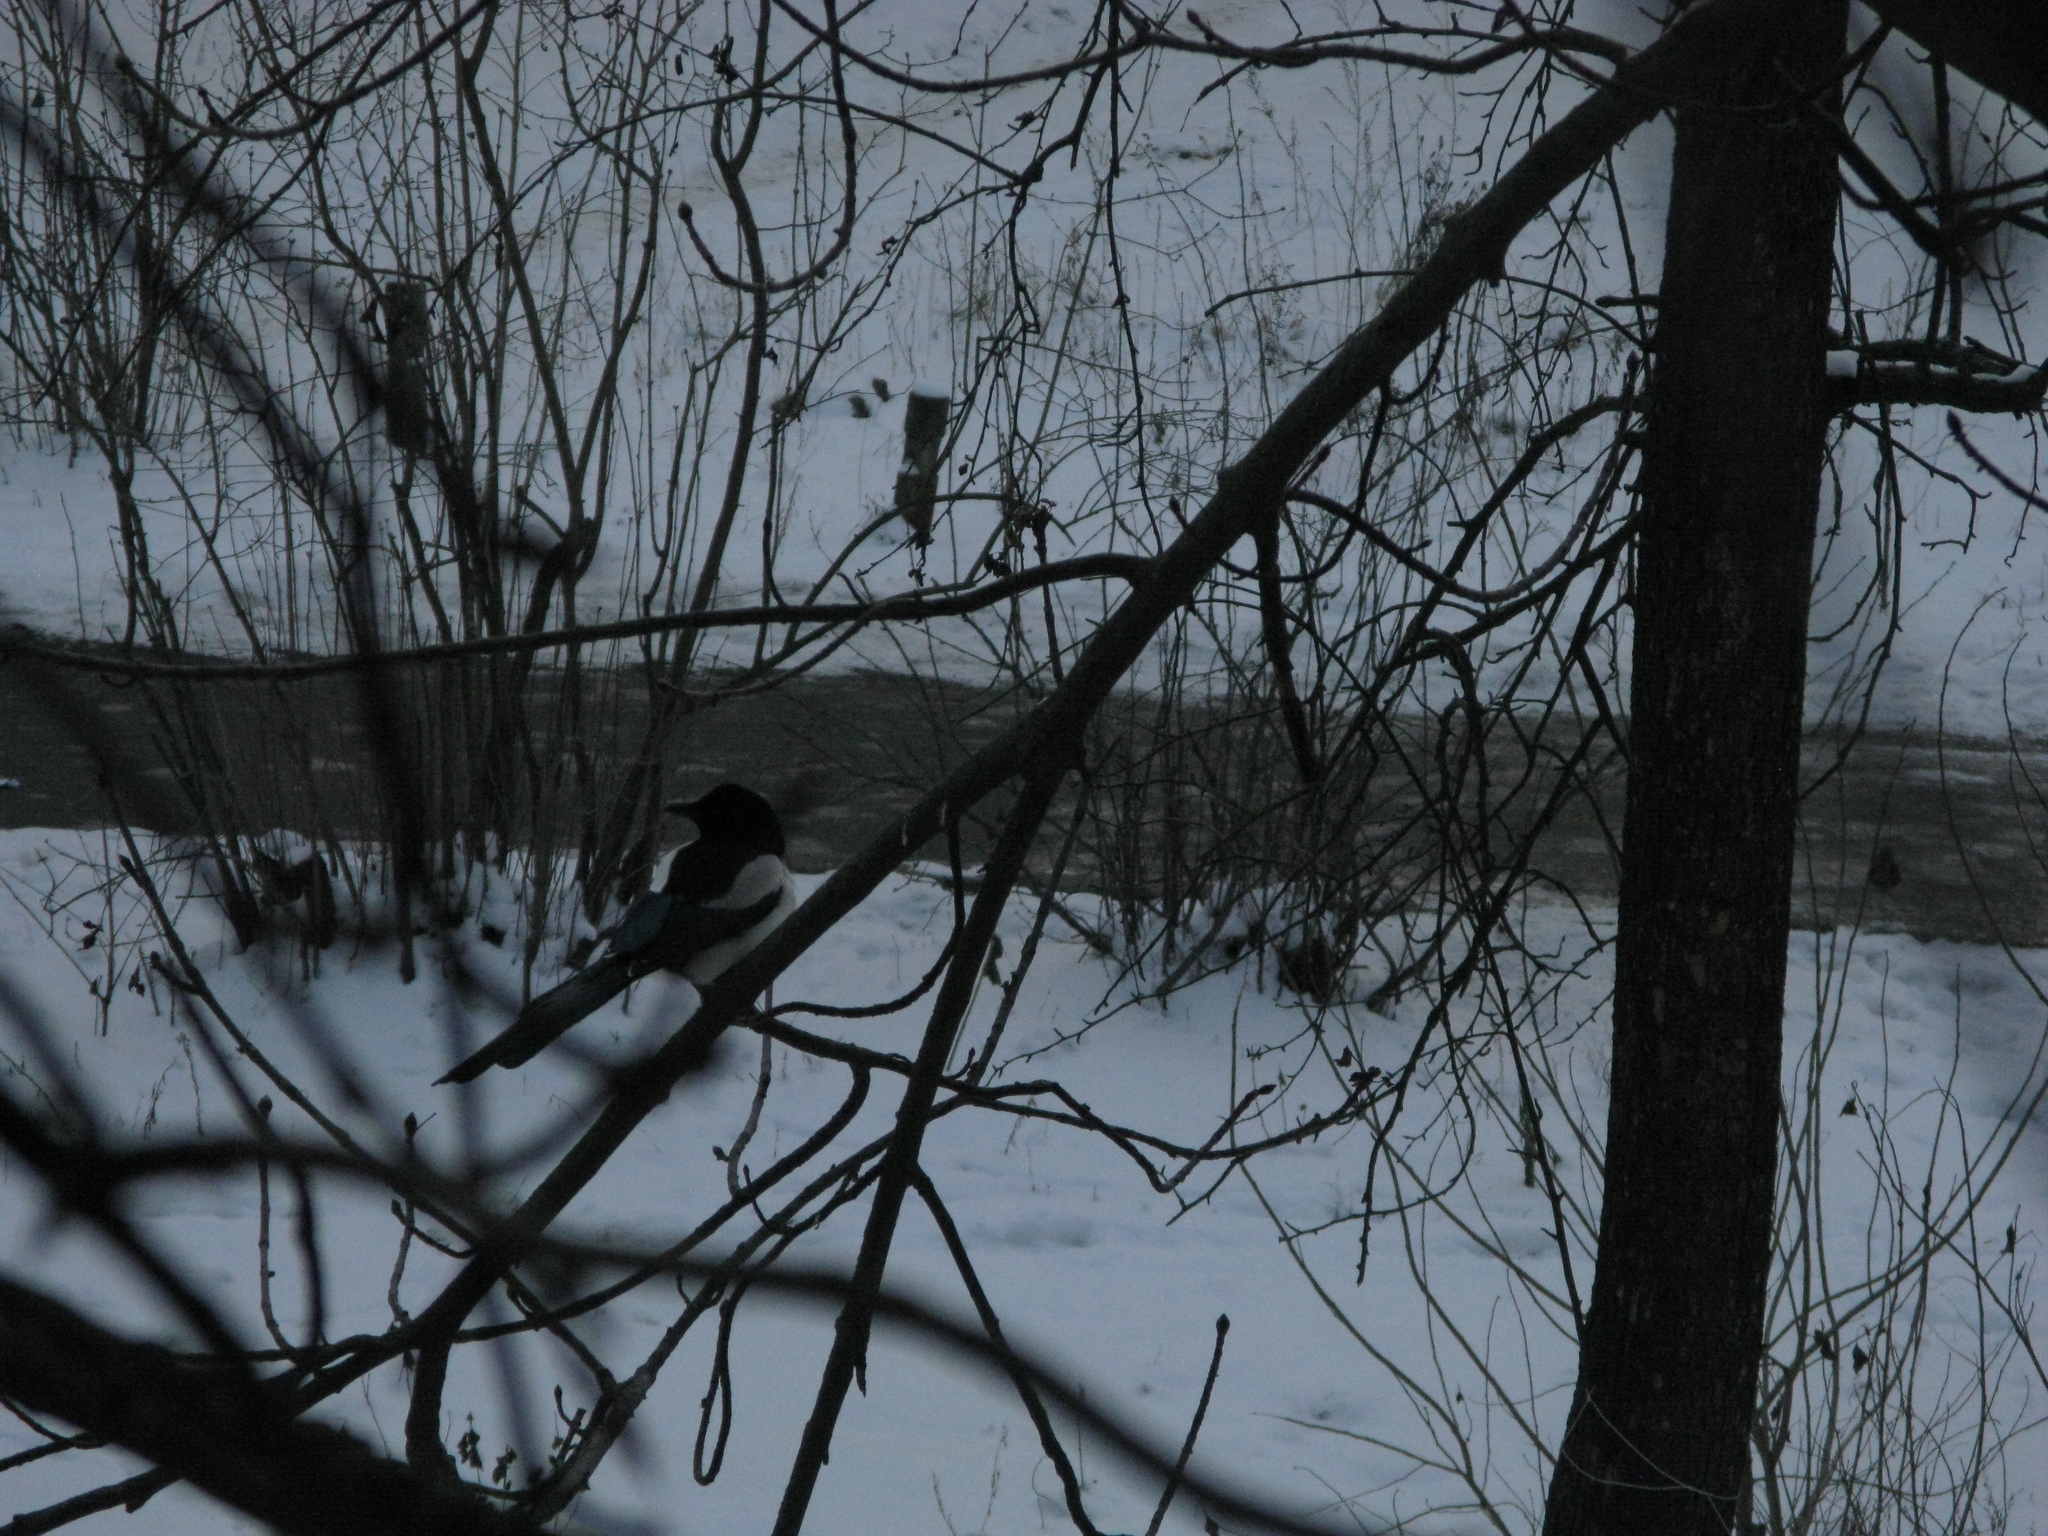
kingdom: Animalia
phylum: Chordata
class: Aves
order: Passeriformes
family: Corvidae
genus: Pica
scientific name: Pica pica
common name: Eurasian magpie
